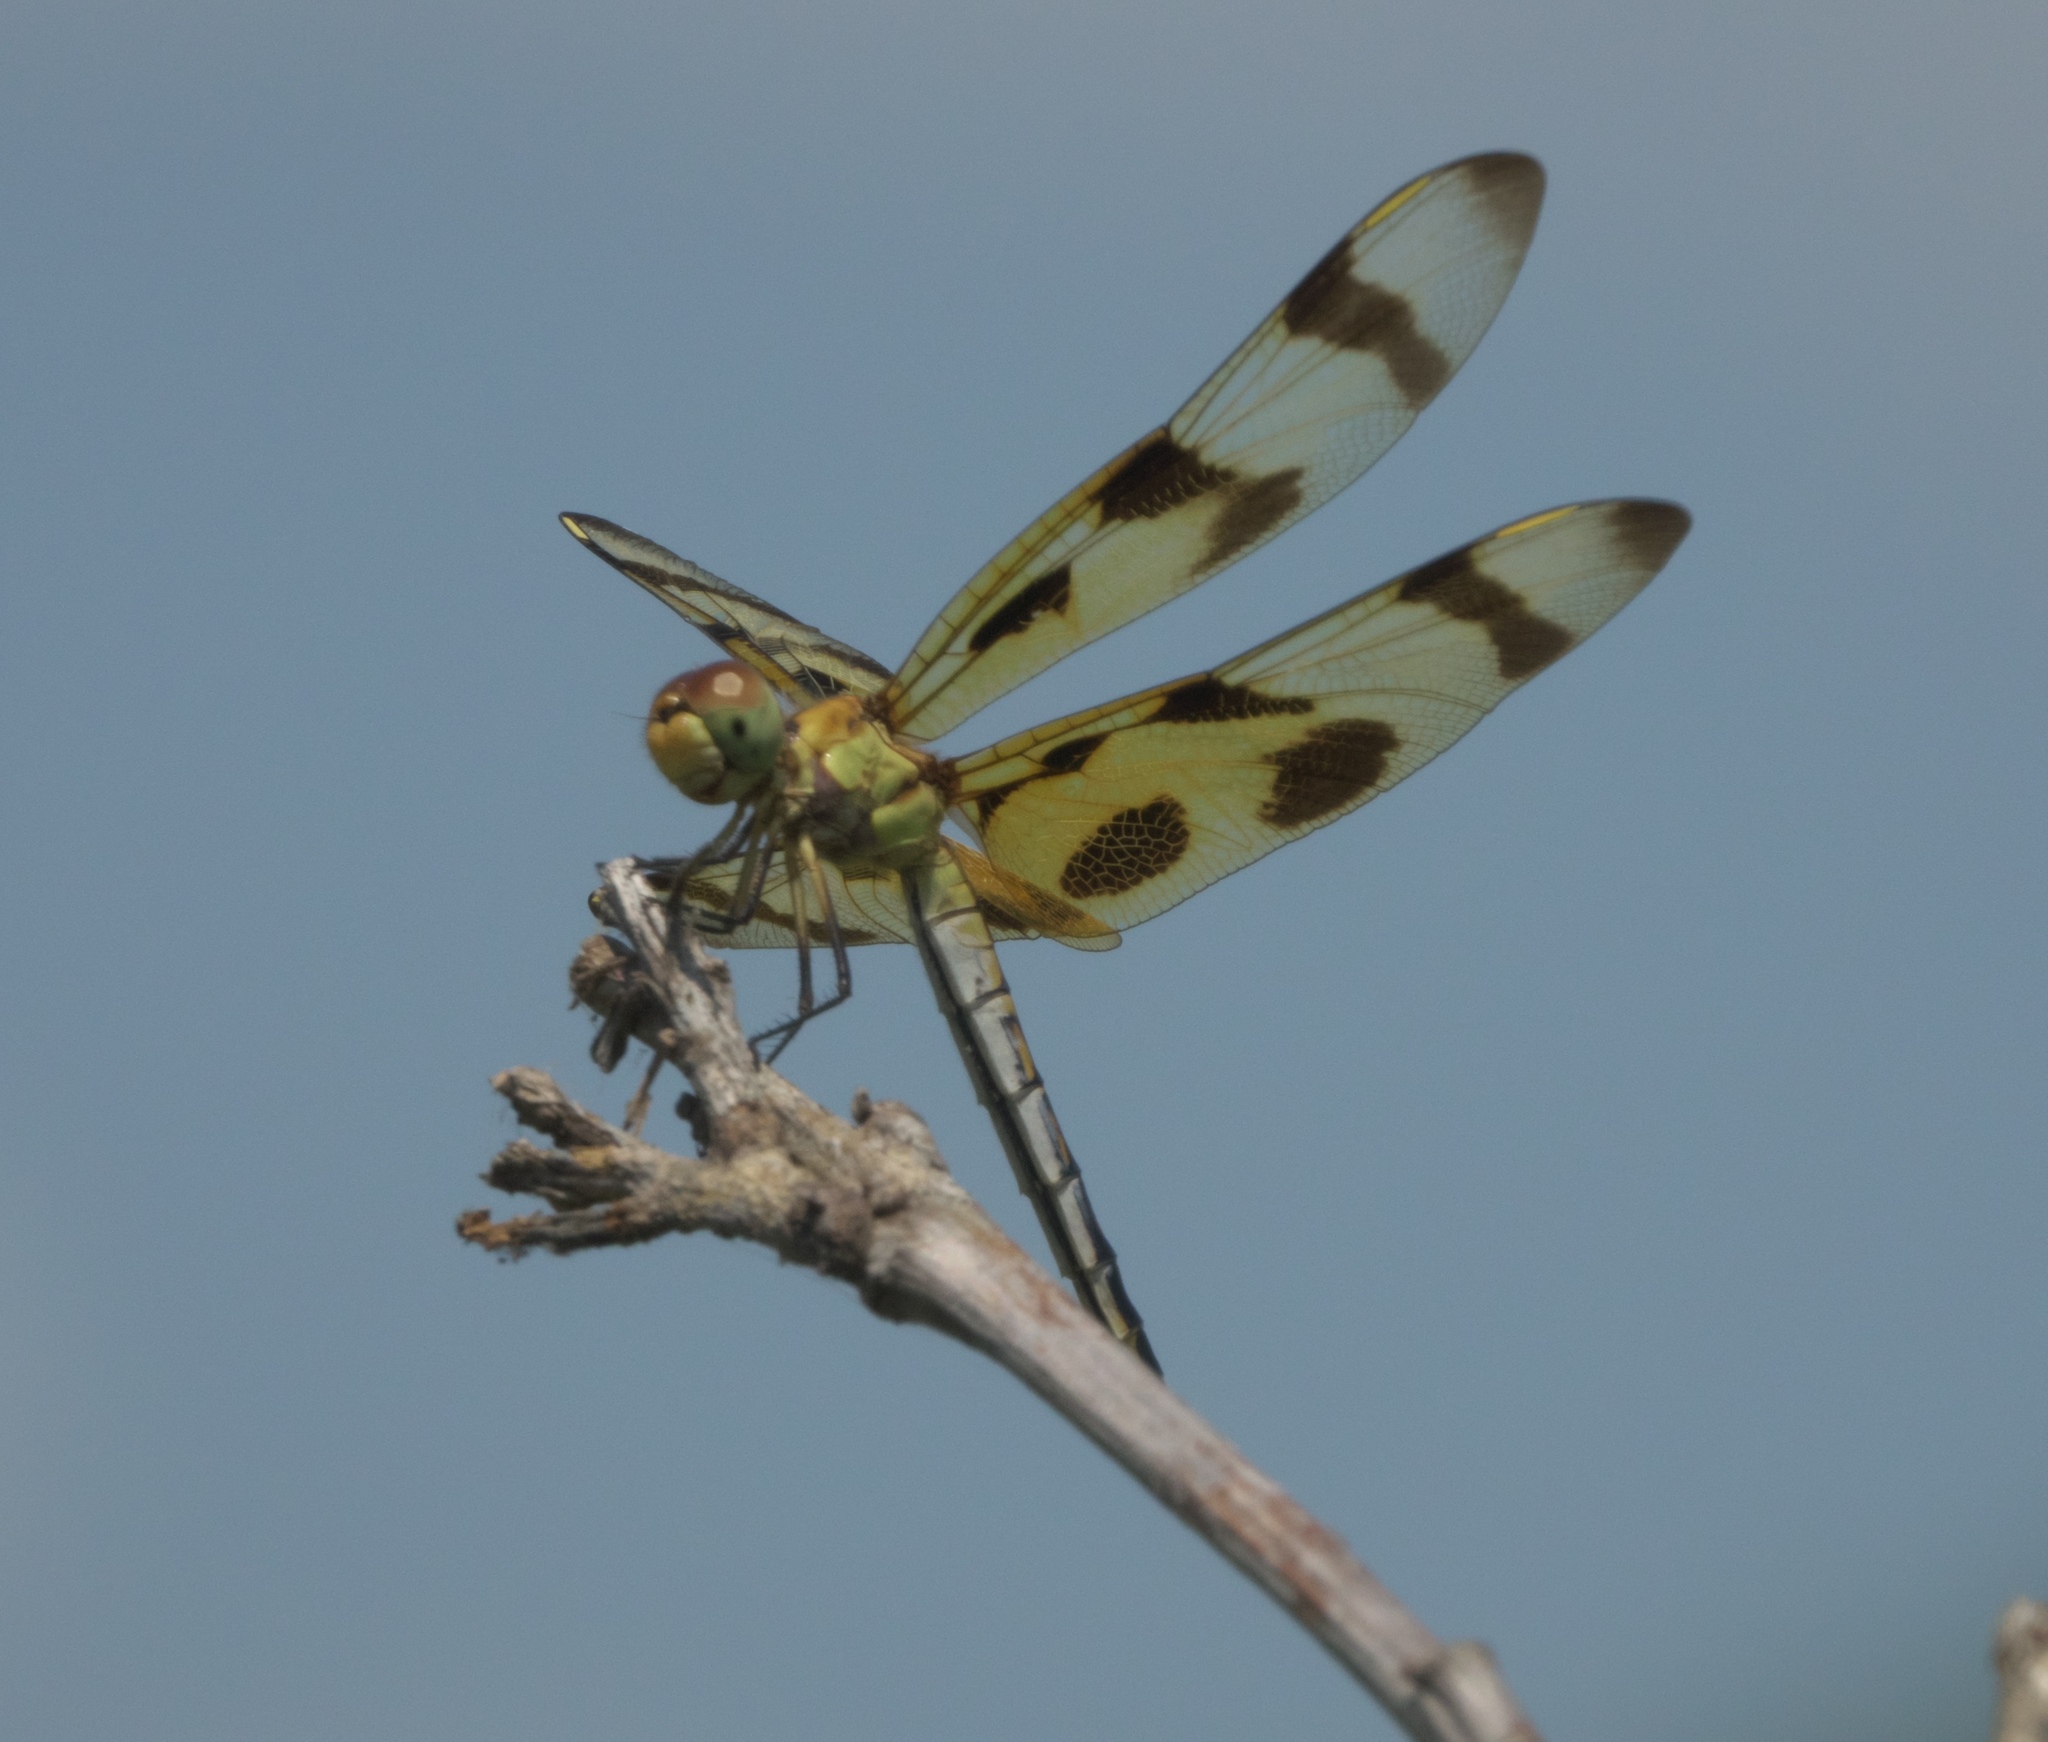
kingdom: Animalia
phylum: Arthropoda
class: Insecta
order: Odonata
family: Libellulidae
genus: Celithemis
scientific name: Celithemis eponina
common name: Halloween pennant
